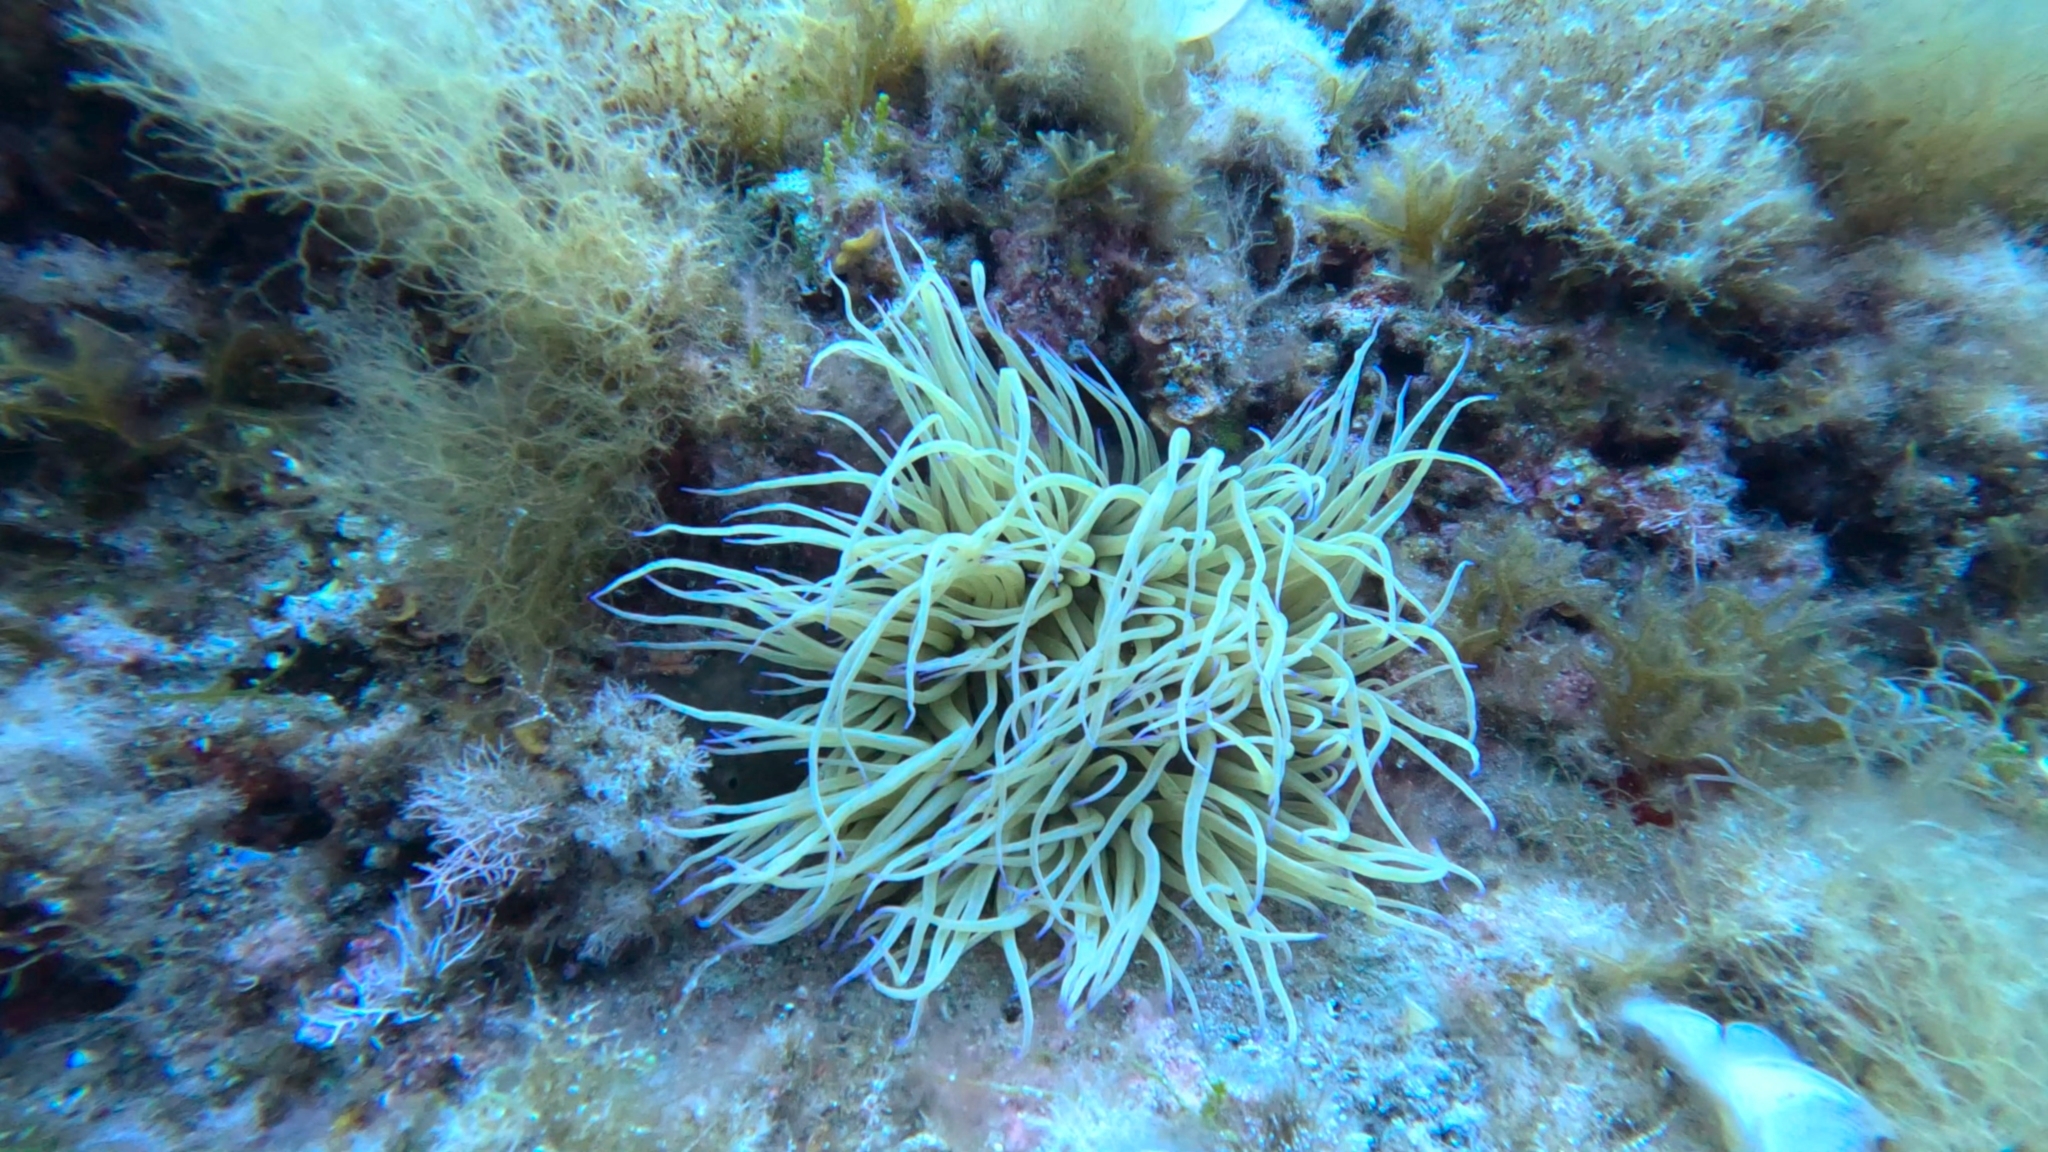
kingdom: Animalia
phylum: Cnidaria
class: Anthozoa
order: Actiniaria
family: Actiniidae
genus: Anemonia
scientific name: Anemonia viridis
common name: Snakelocks anemone
